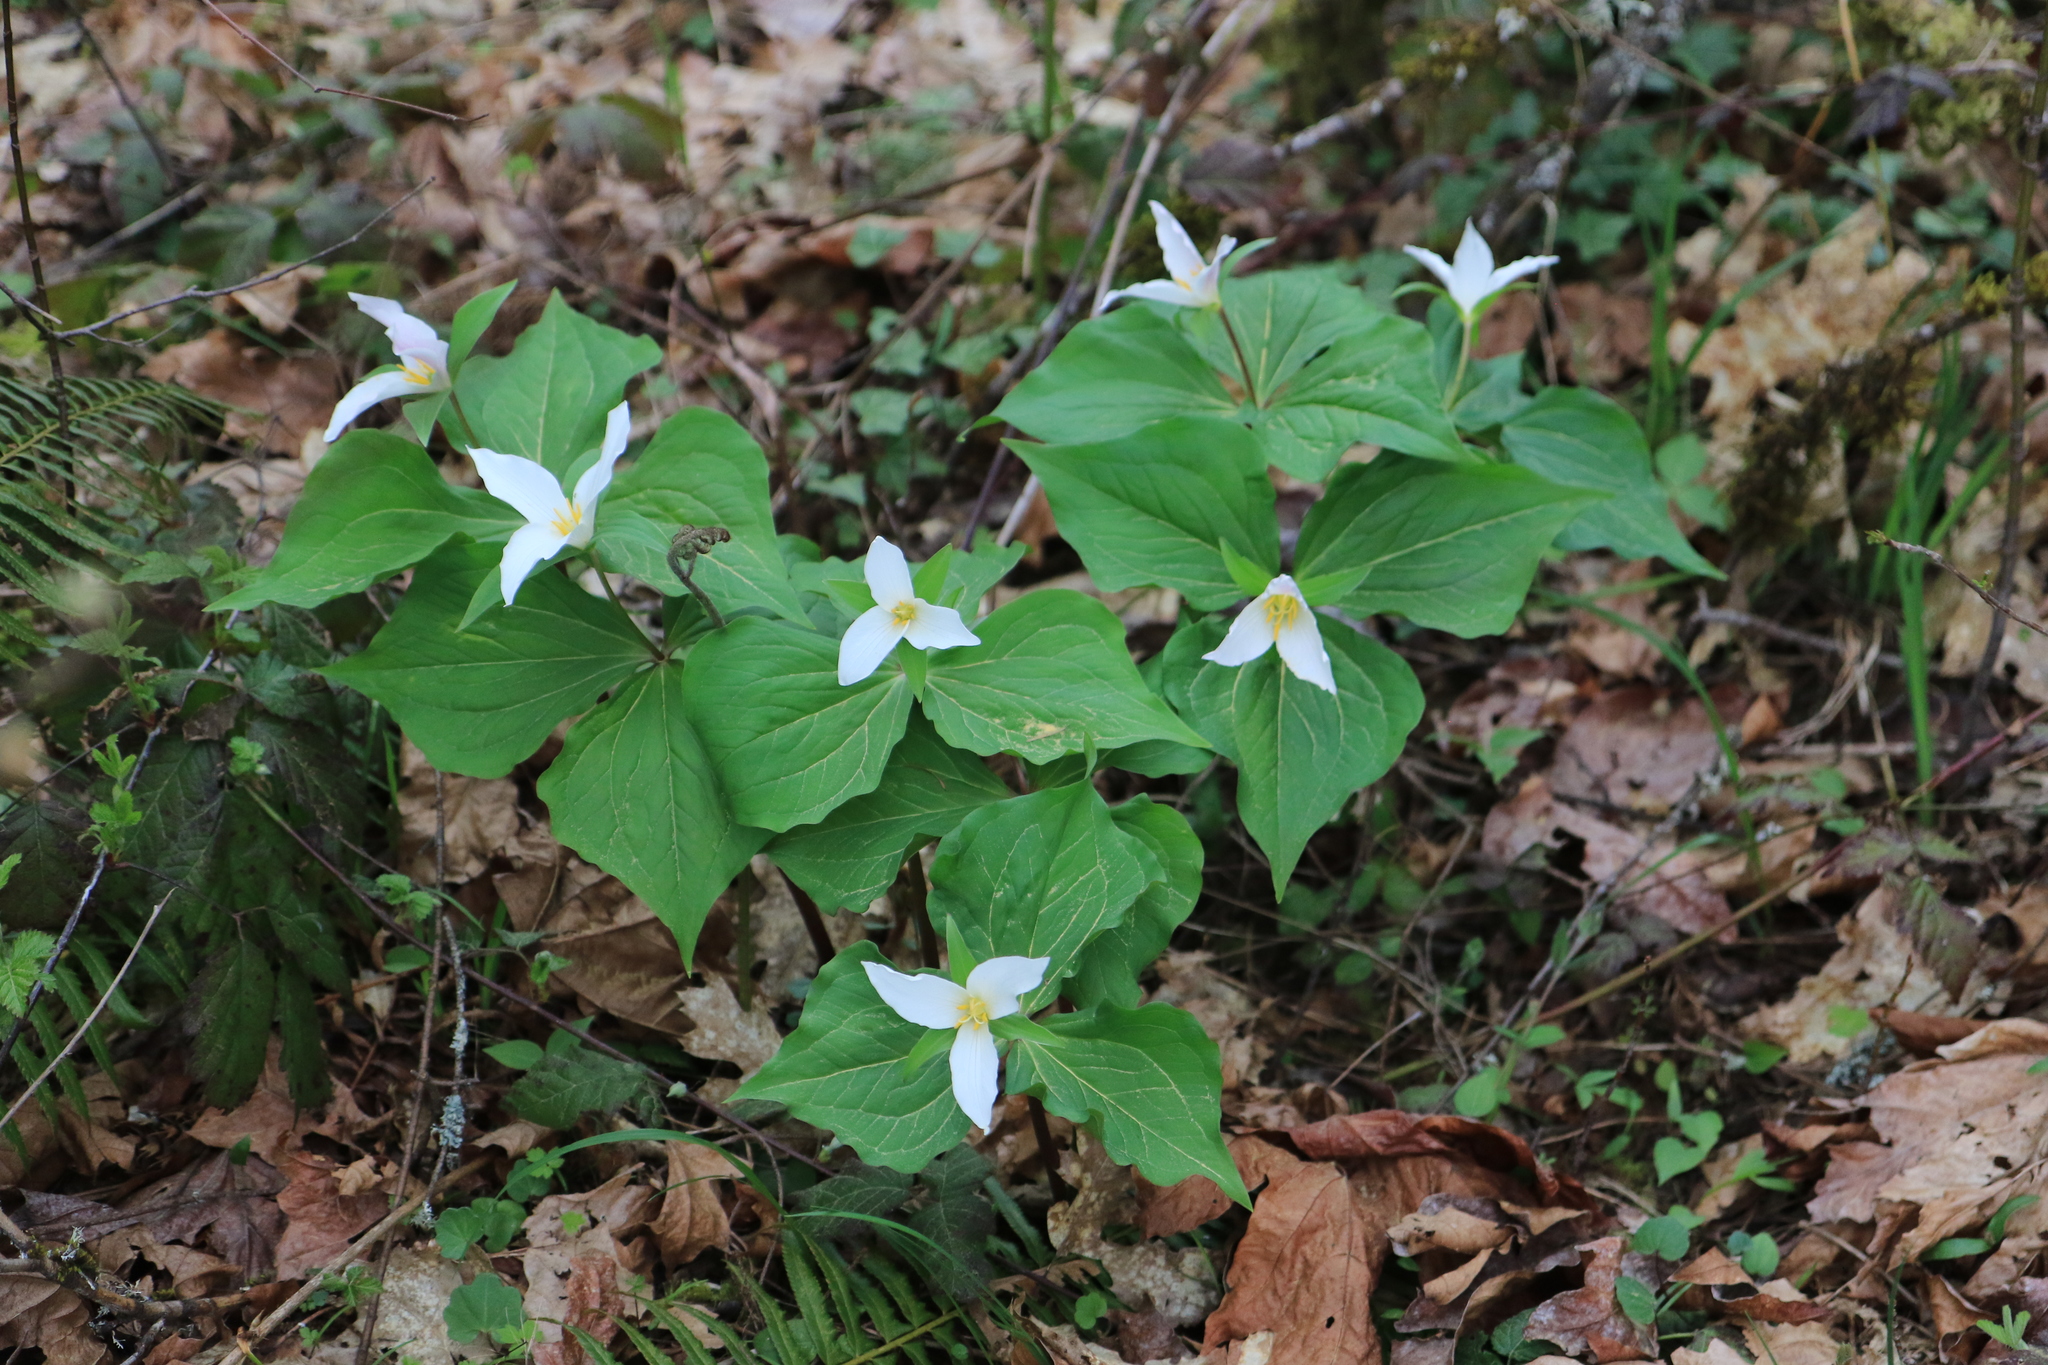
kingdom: Plantae
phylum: Tracheophyta
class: Liliopsida
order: Liliales
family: Melanthiaceae
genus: Trillium
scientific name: Trillium ovatum
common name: Pacific trillium
